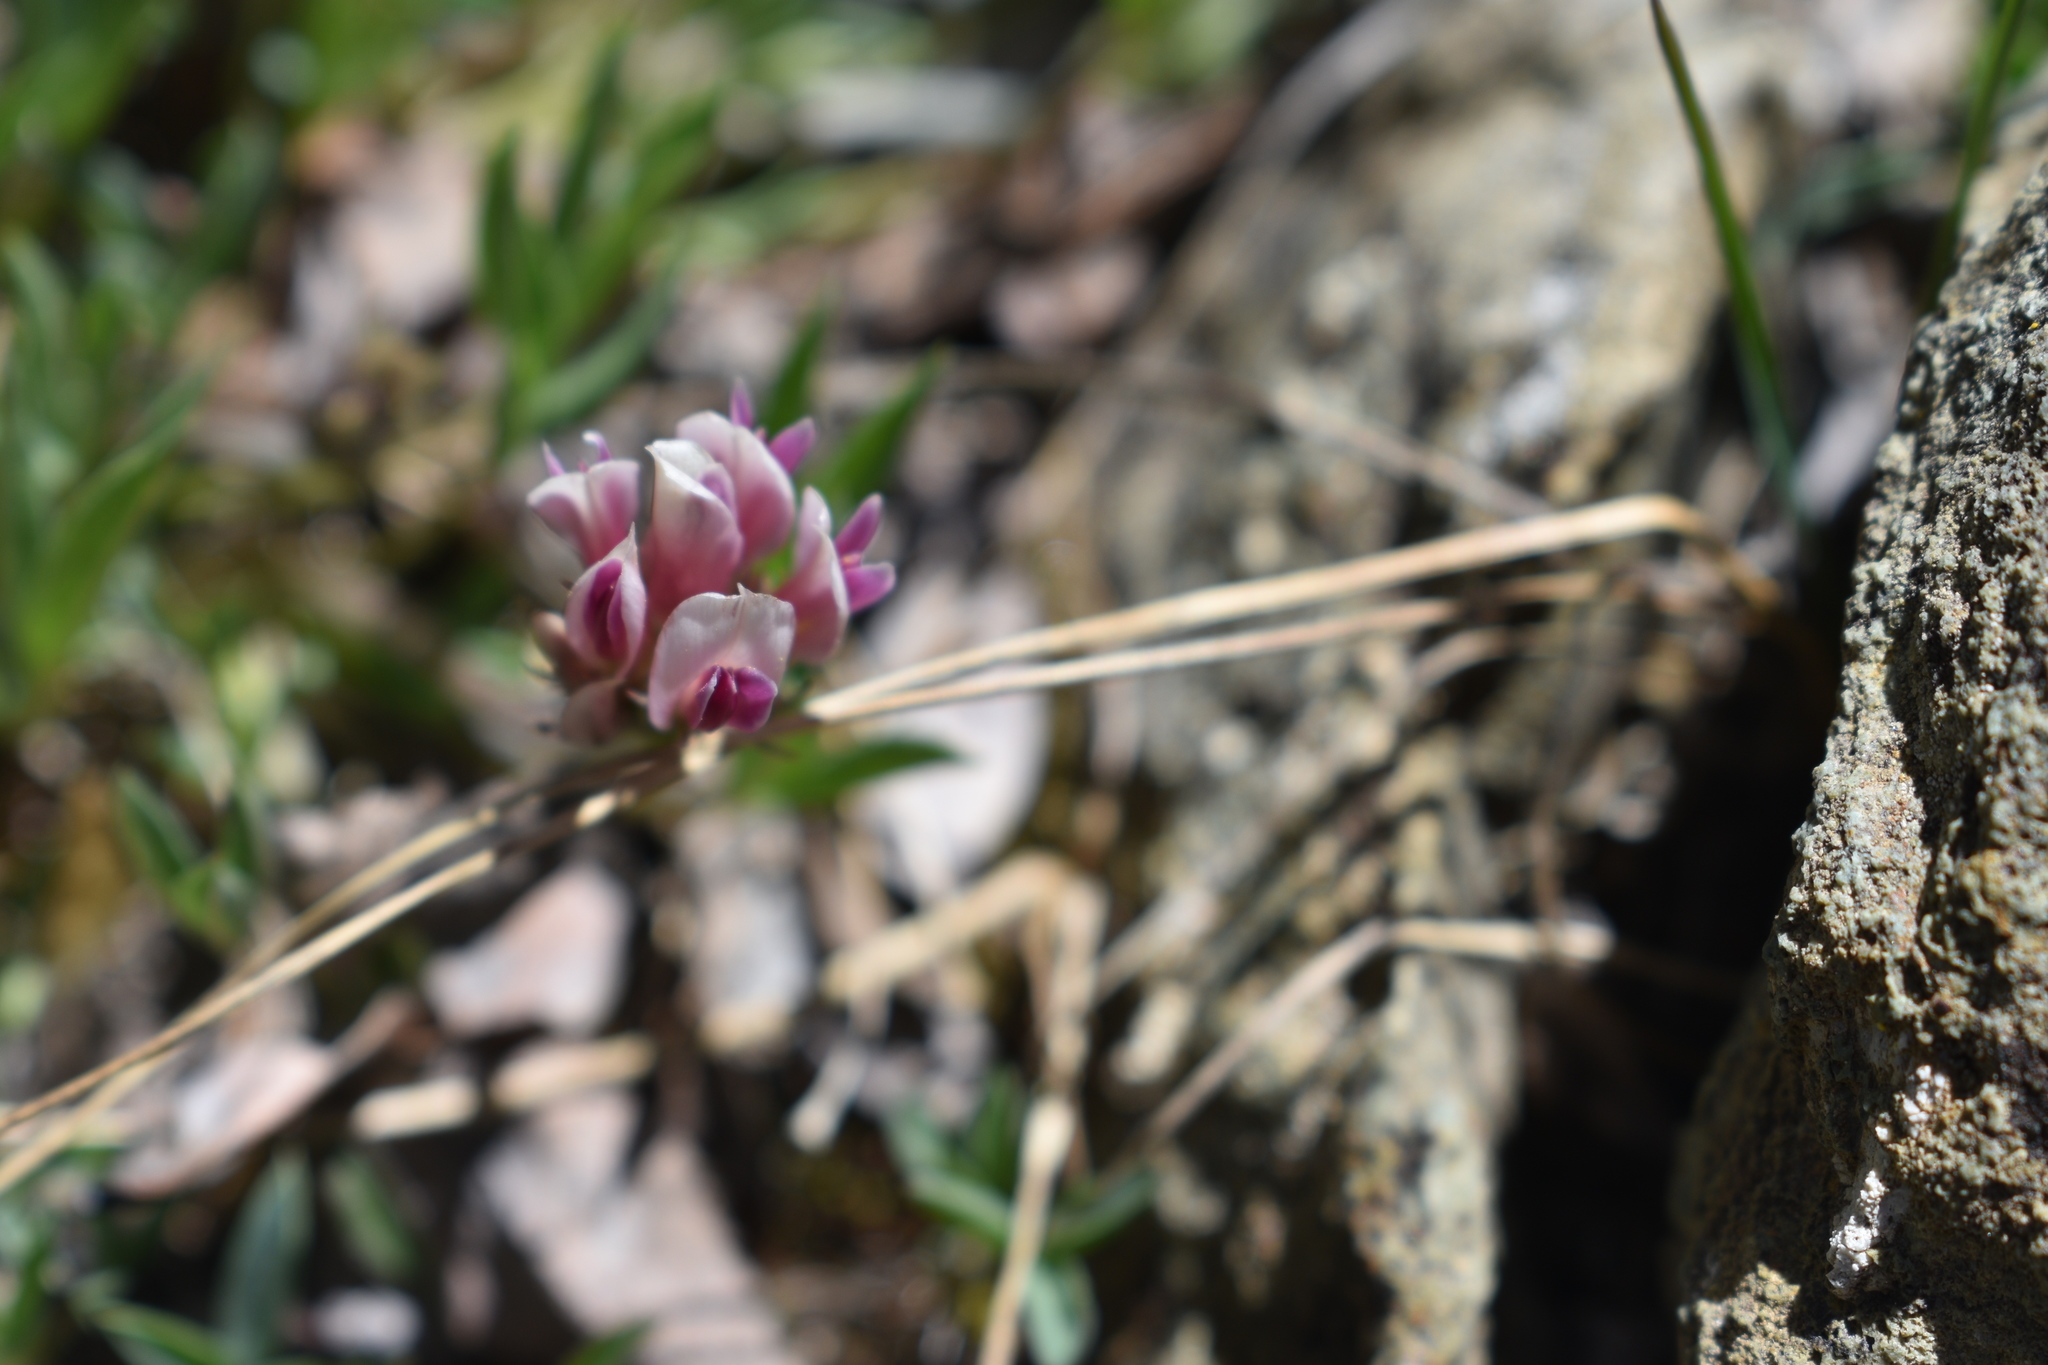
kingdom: Plantae
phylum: Tracheophyta
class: Magnoliopsida
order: Fabales
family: Fabaceae
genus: Trifolium
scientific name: Trifolium dasyphyllum
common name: Whip-root clover
